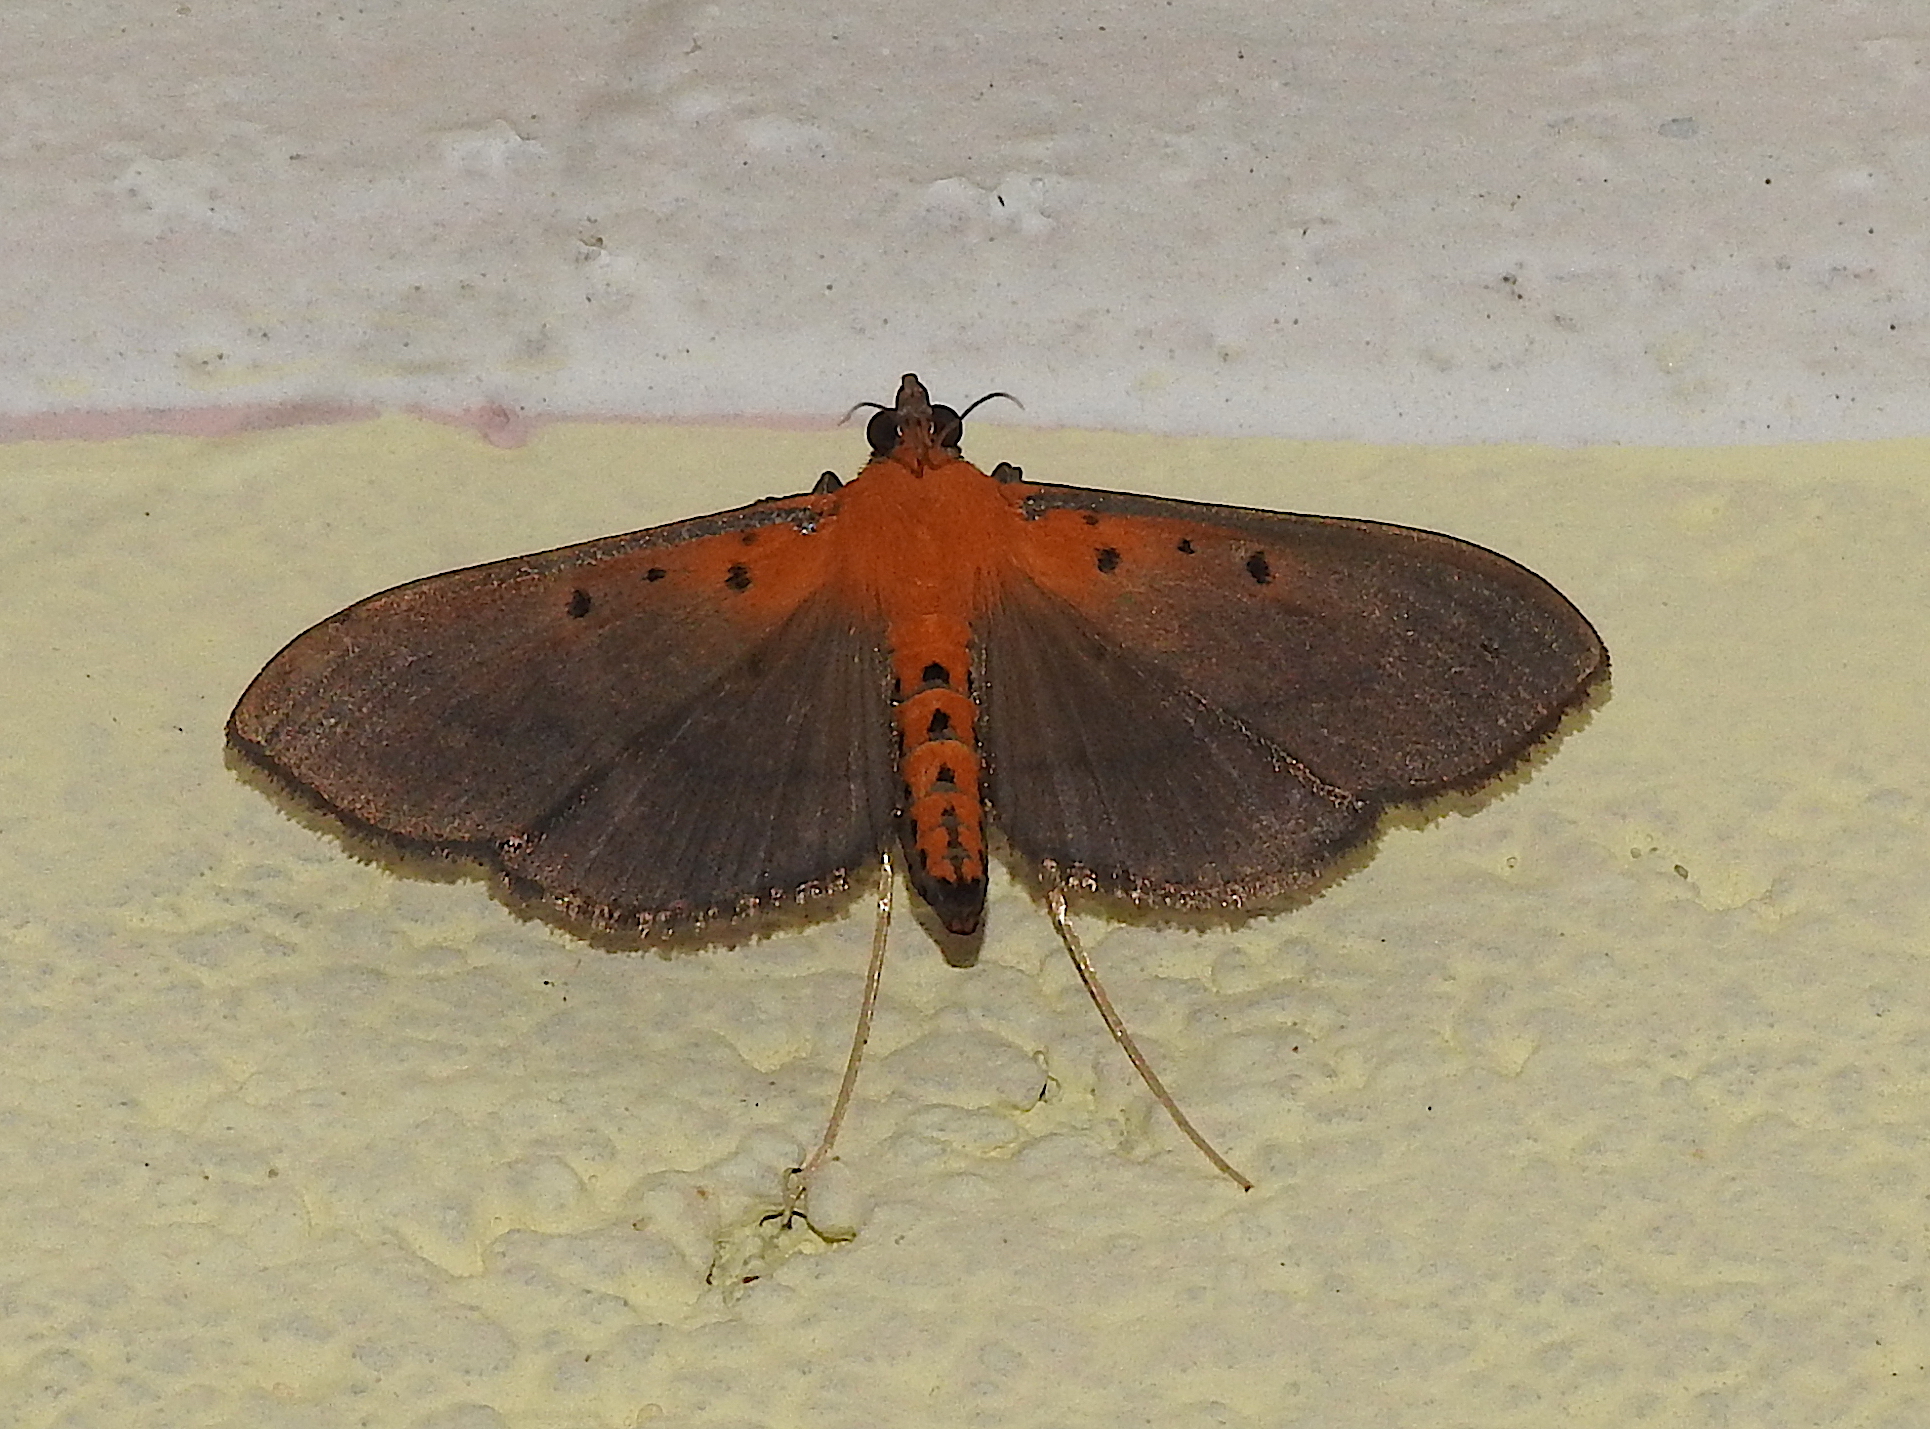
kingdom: Animalia
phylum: Arthropoda
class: Insecta
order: Lepidoptera
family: Crambidae
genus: Filodes
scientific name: Filodes fulvidorsalis
